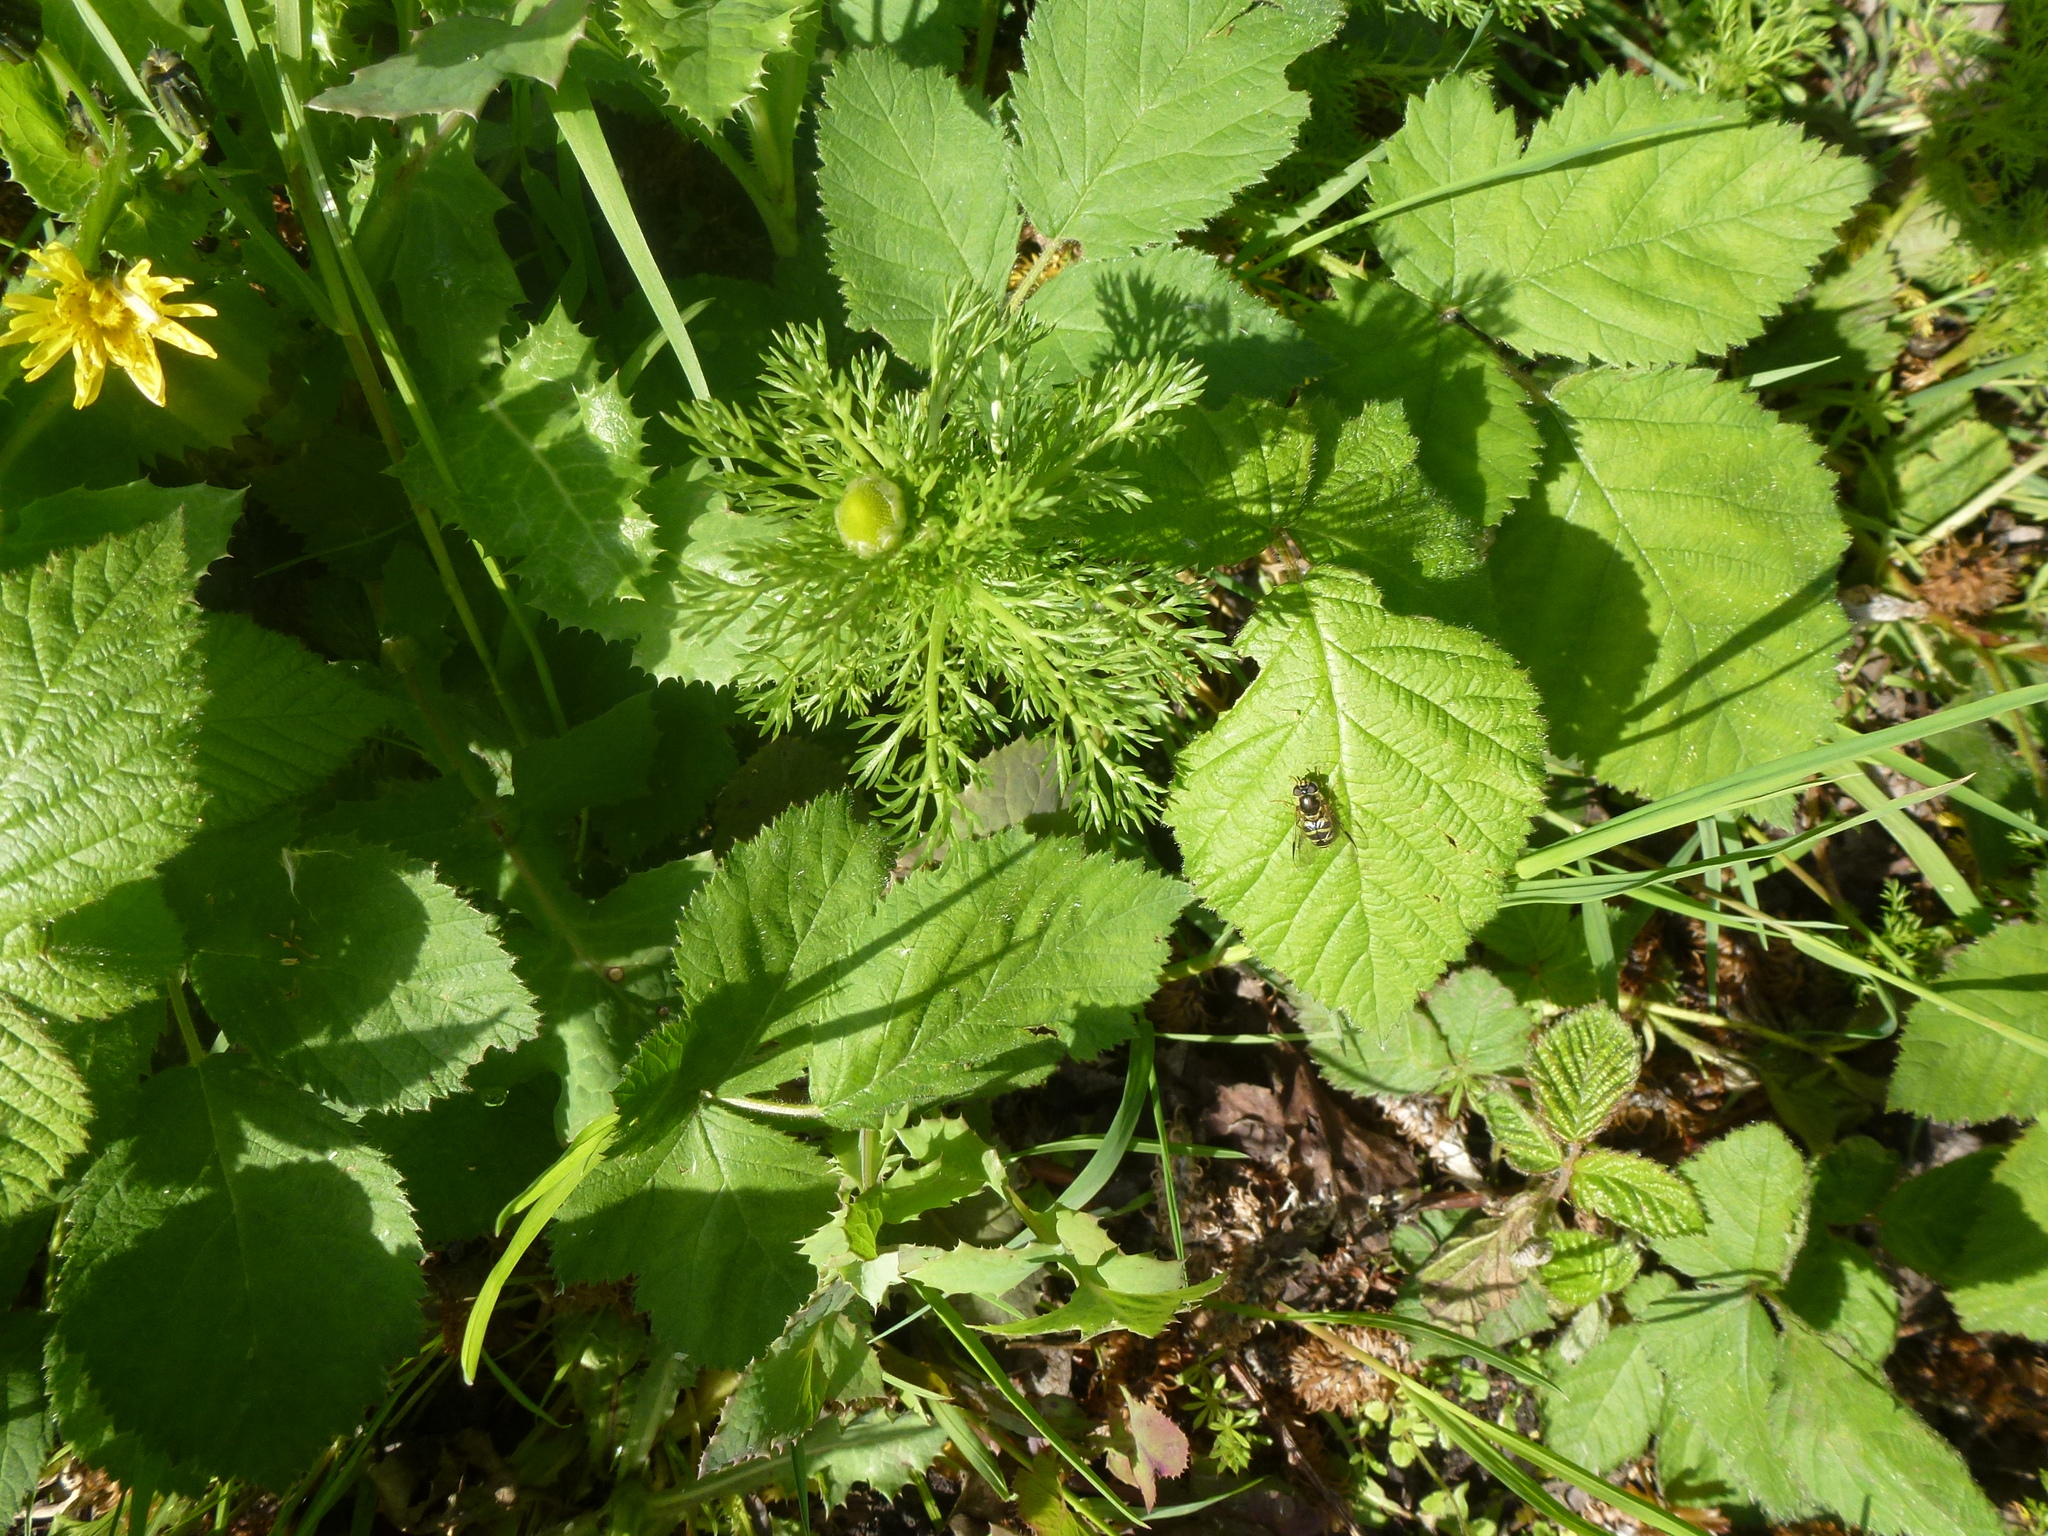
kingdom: Plantae
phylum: Tracheophyta
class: Magnoliopsida
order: Asterales
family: Asteraceae
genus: Matricaria
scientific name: Matricaria discoidea
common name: Disc mayweed
